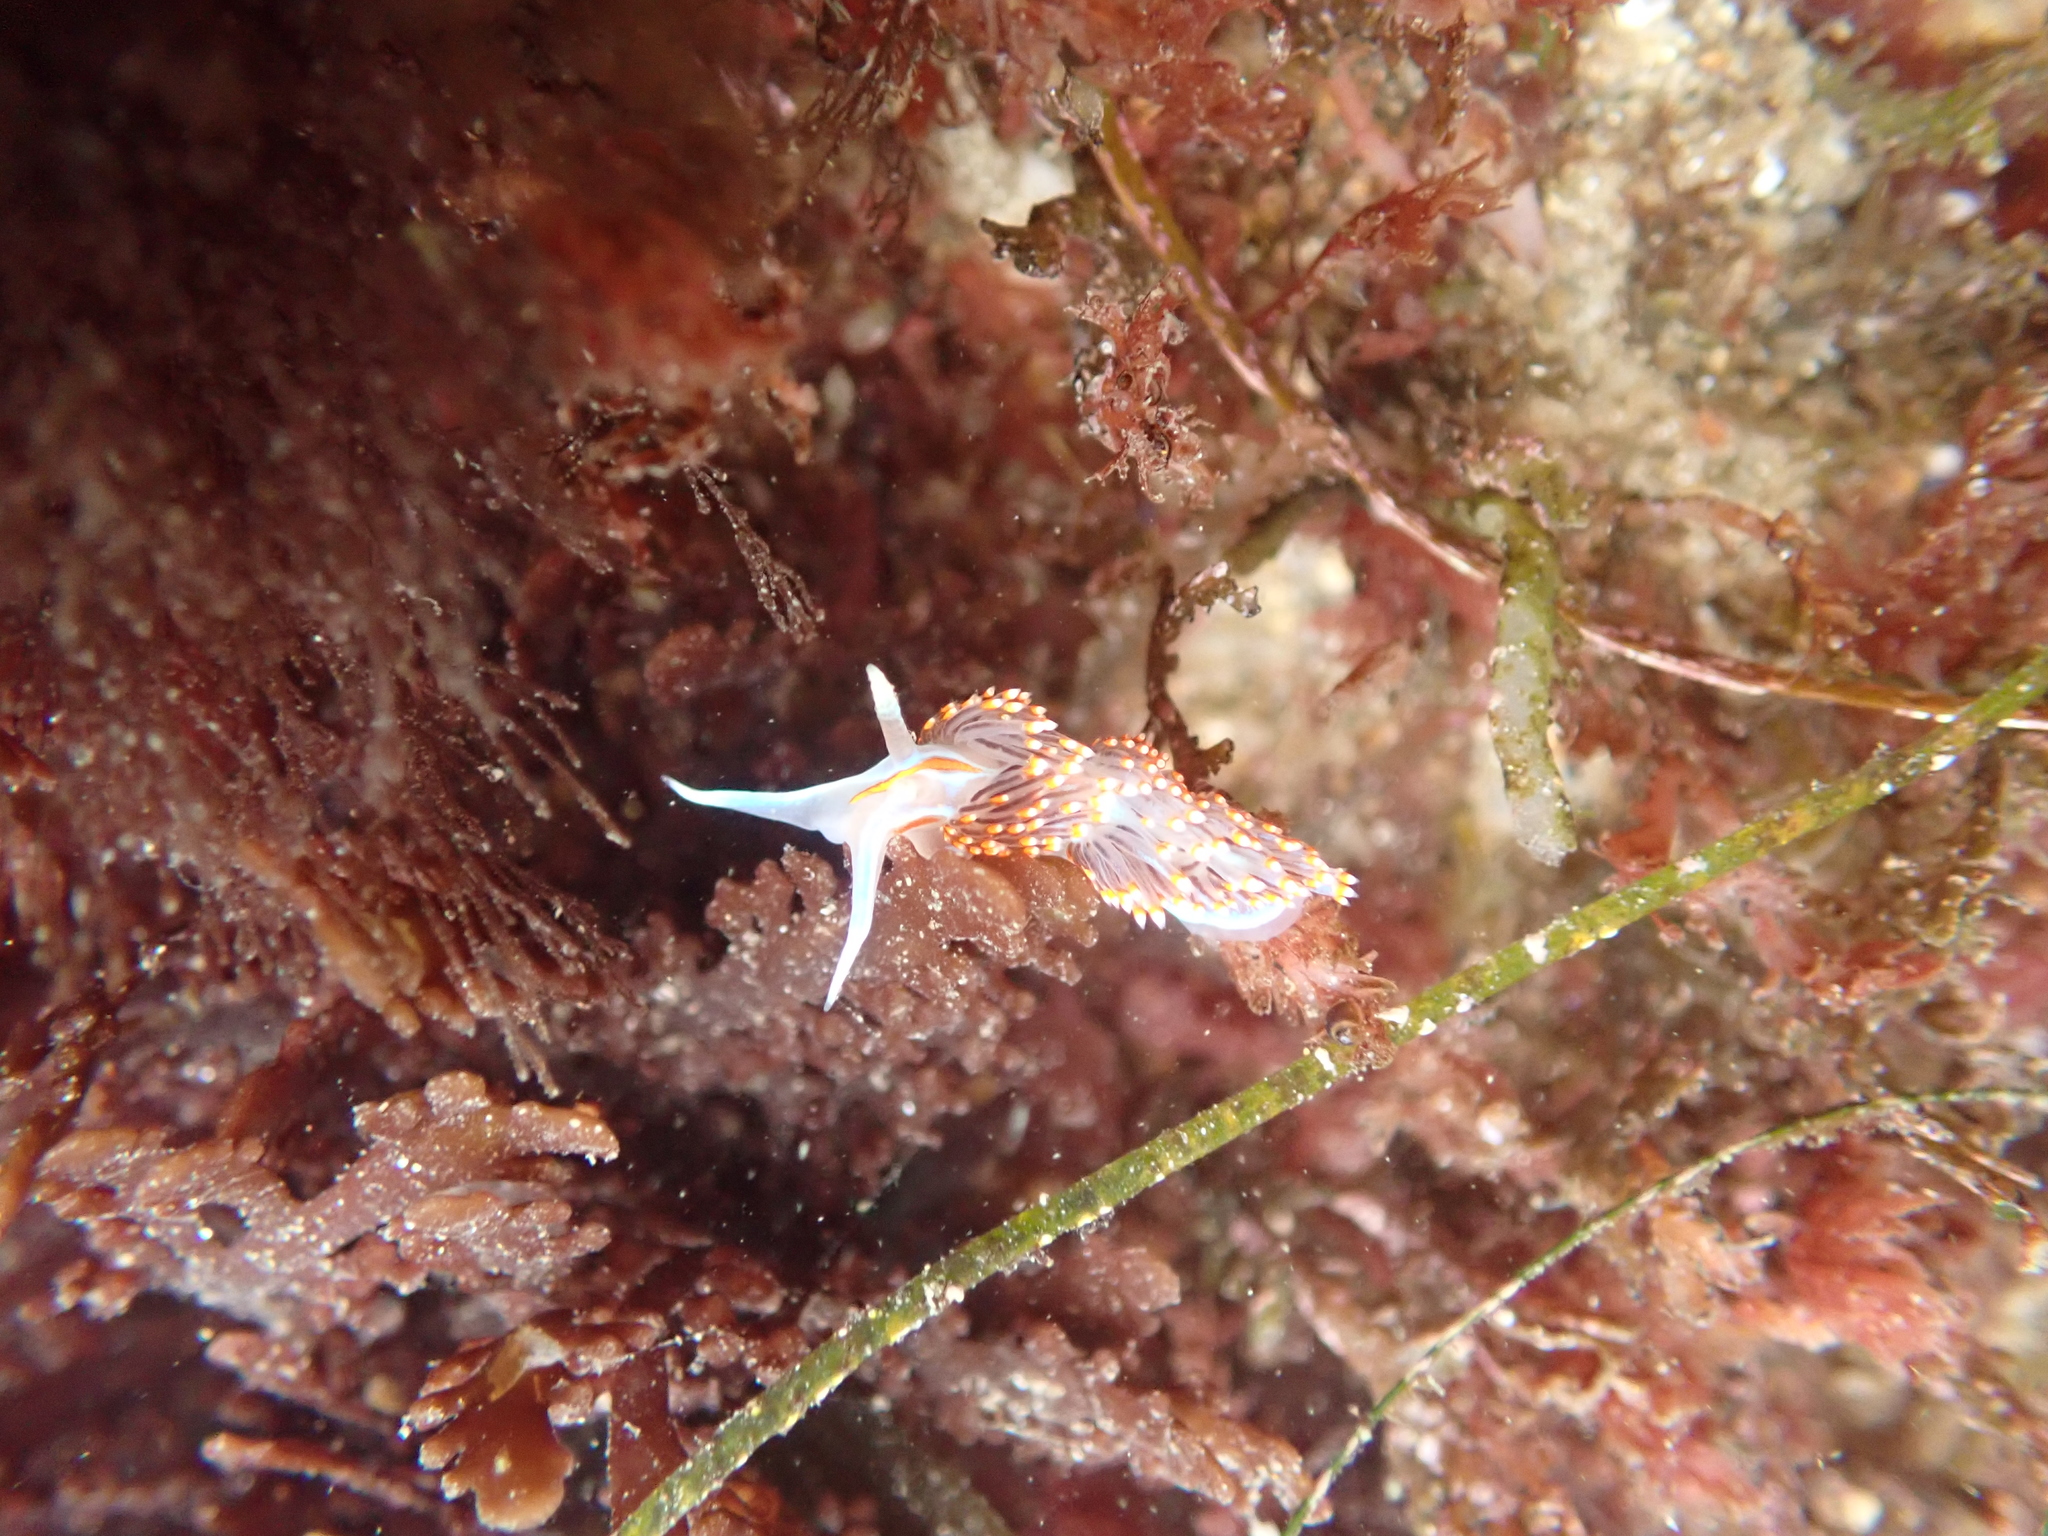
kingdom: Animalia
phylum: Mollusca
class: Gastropoda
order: Nudibranchia
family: Myrrhinidae
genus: Hermissenda
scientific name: Hermissenda opalescens
